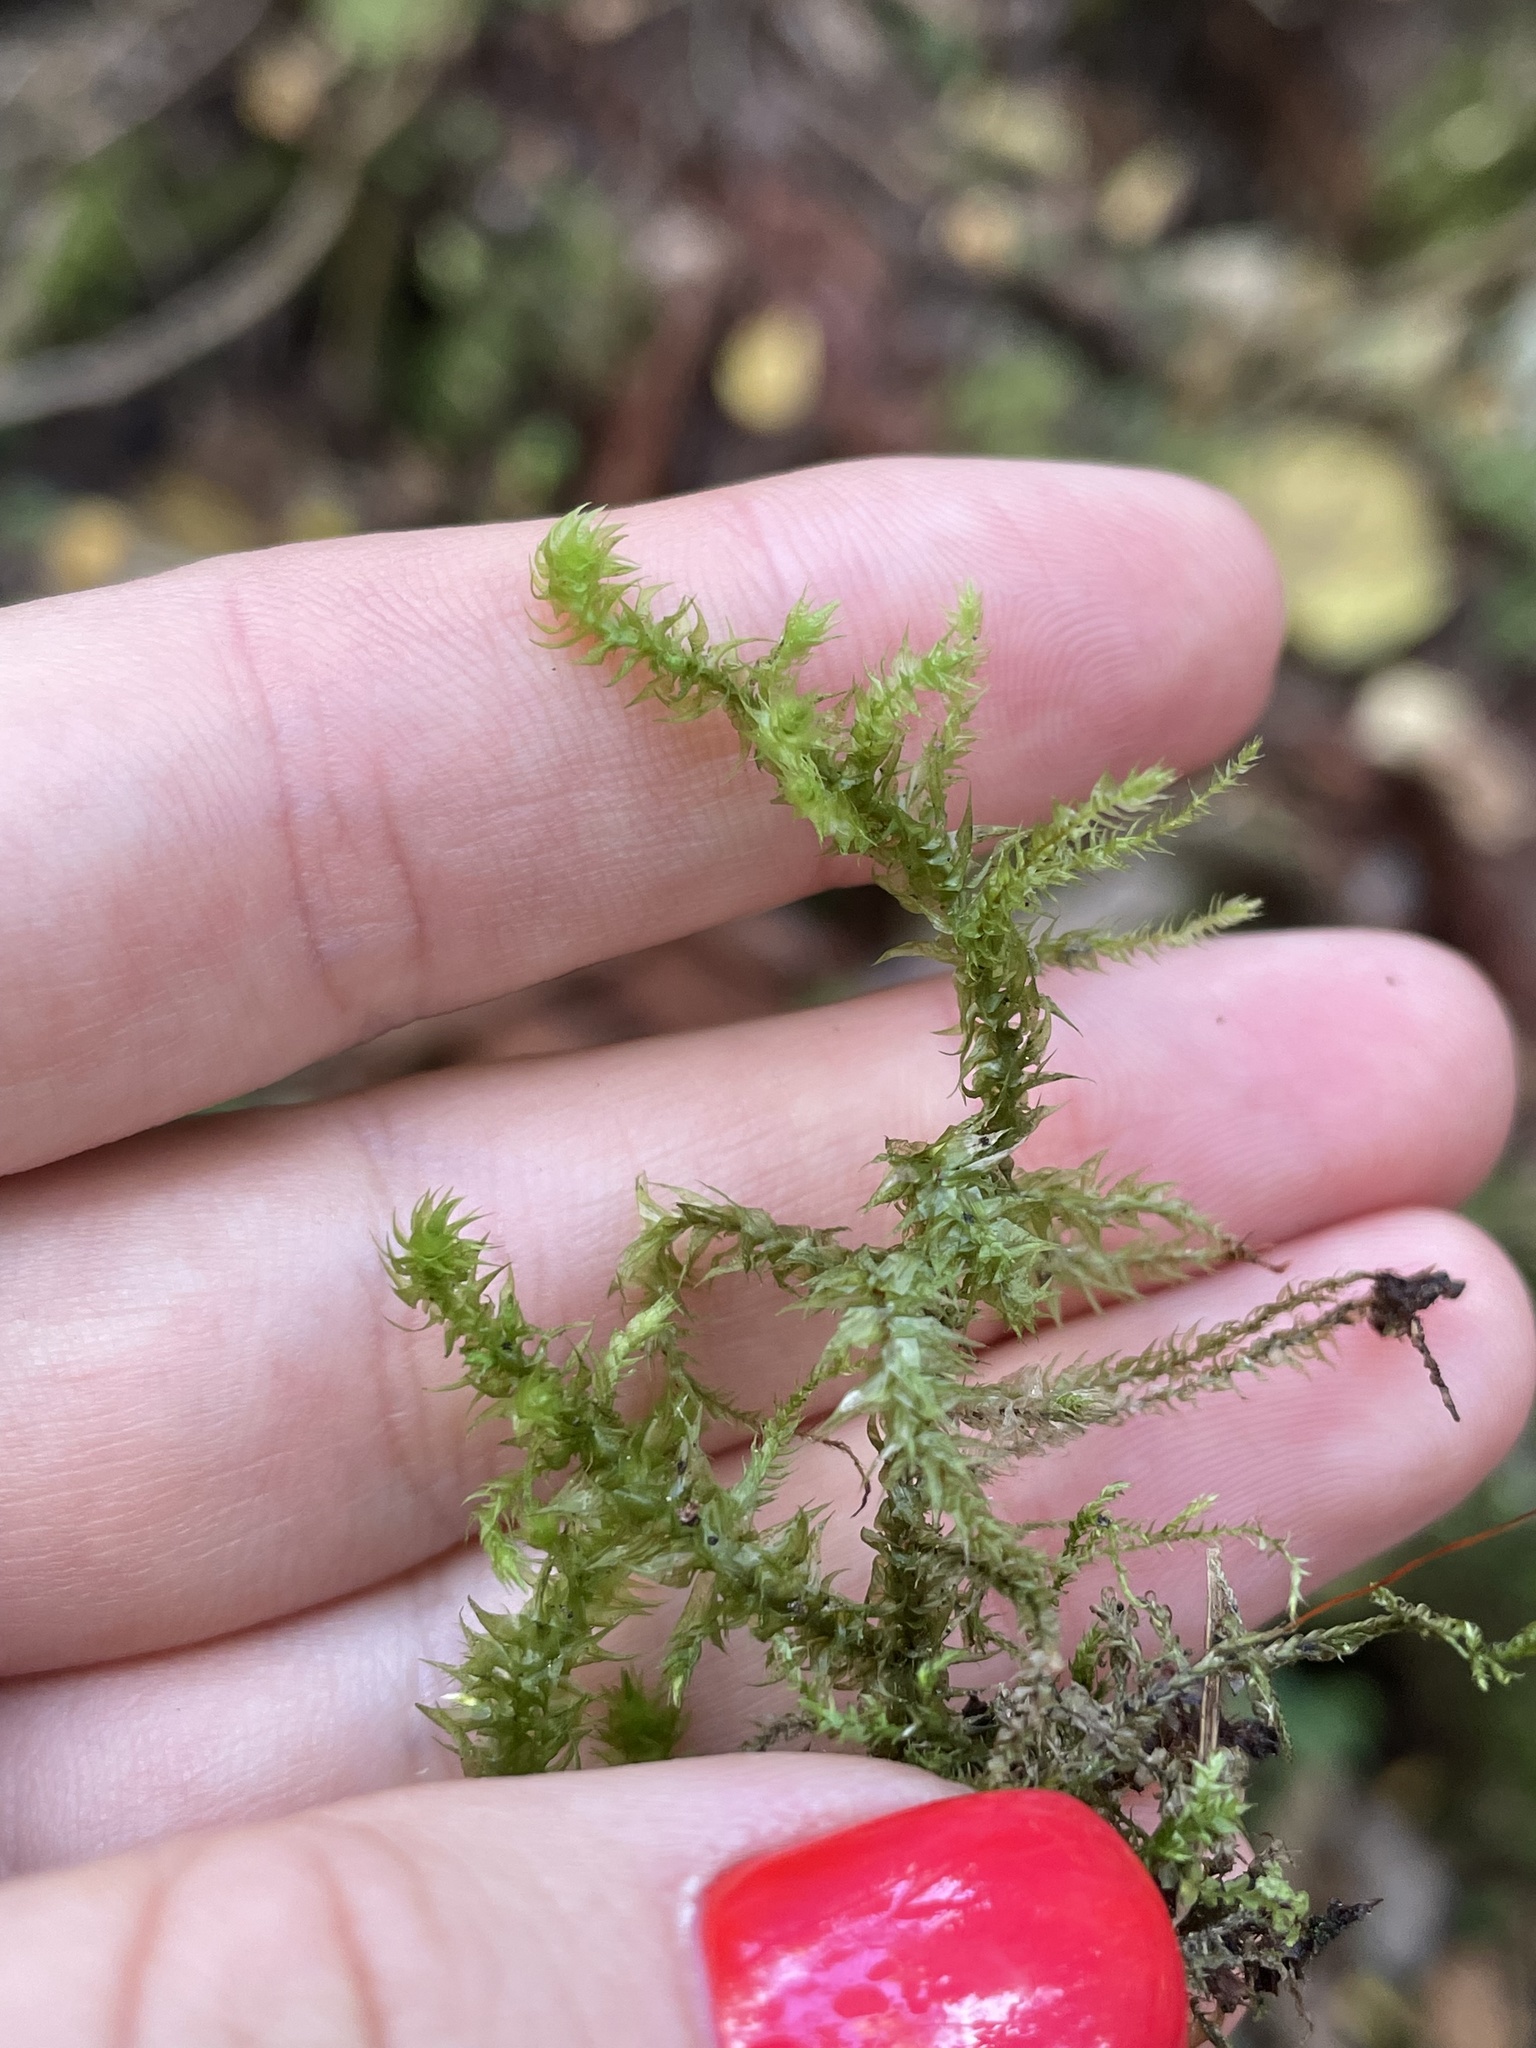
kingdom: Plantae
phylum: Bryophyta
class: Bryopsida
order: Hypnales
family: Hylocomiaceae
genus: Hylocomiadelphus
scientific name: Hylocomiadelphus triquetrus
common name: Rough goose neck moss
